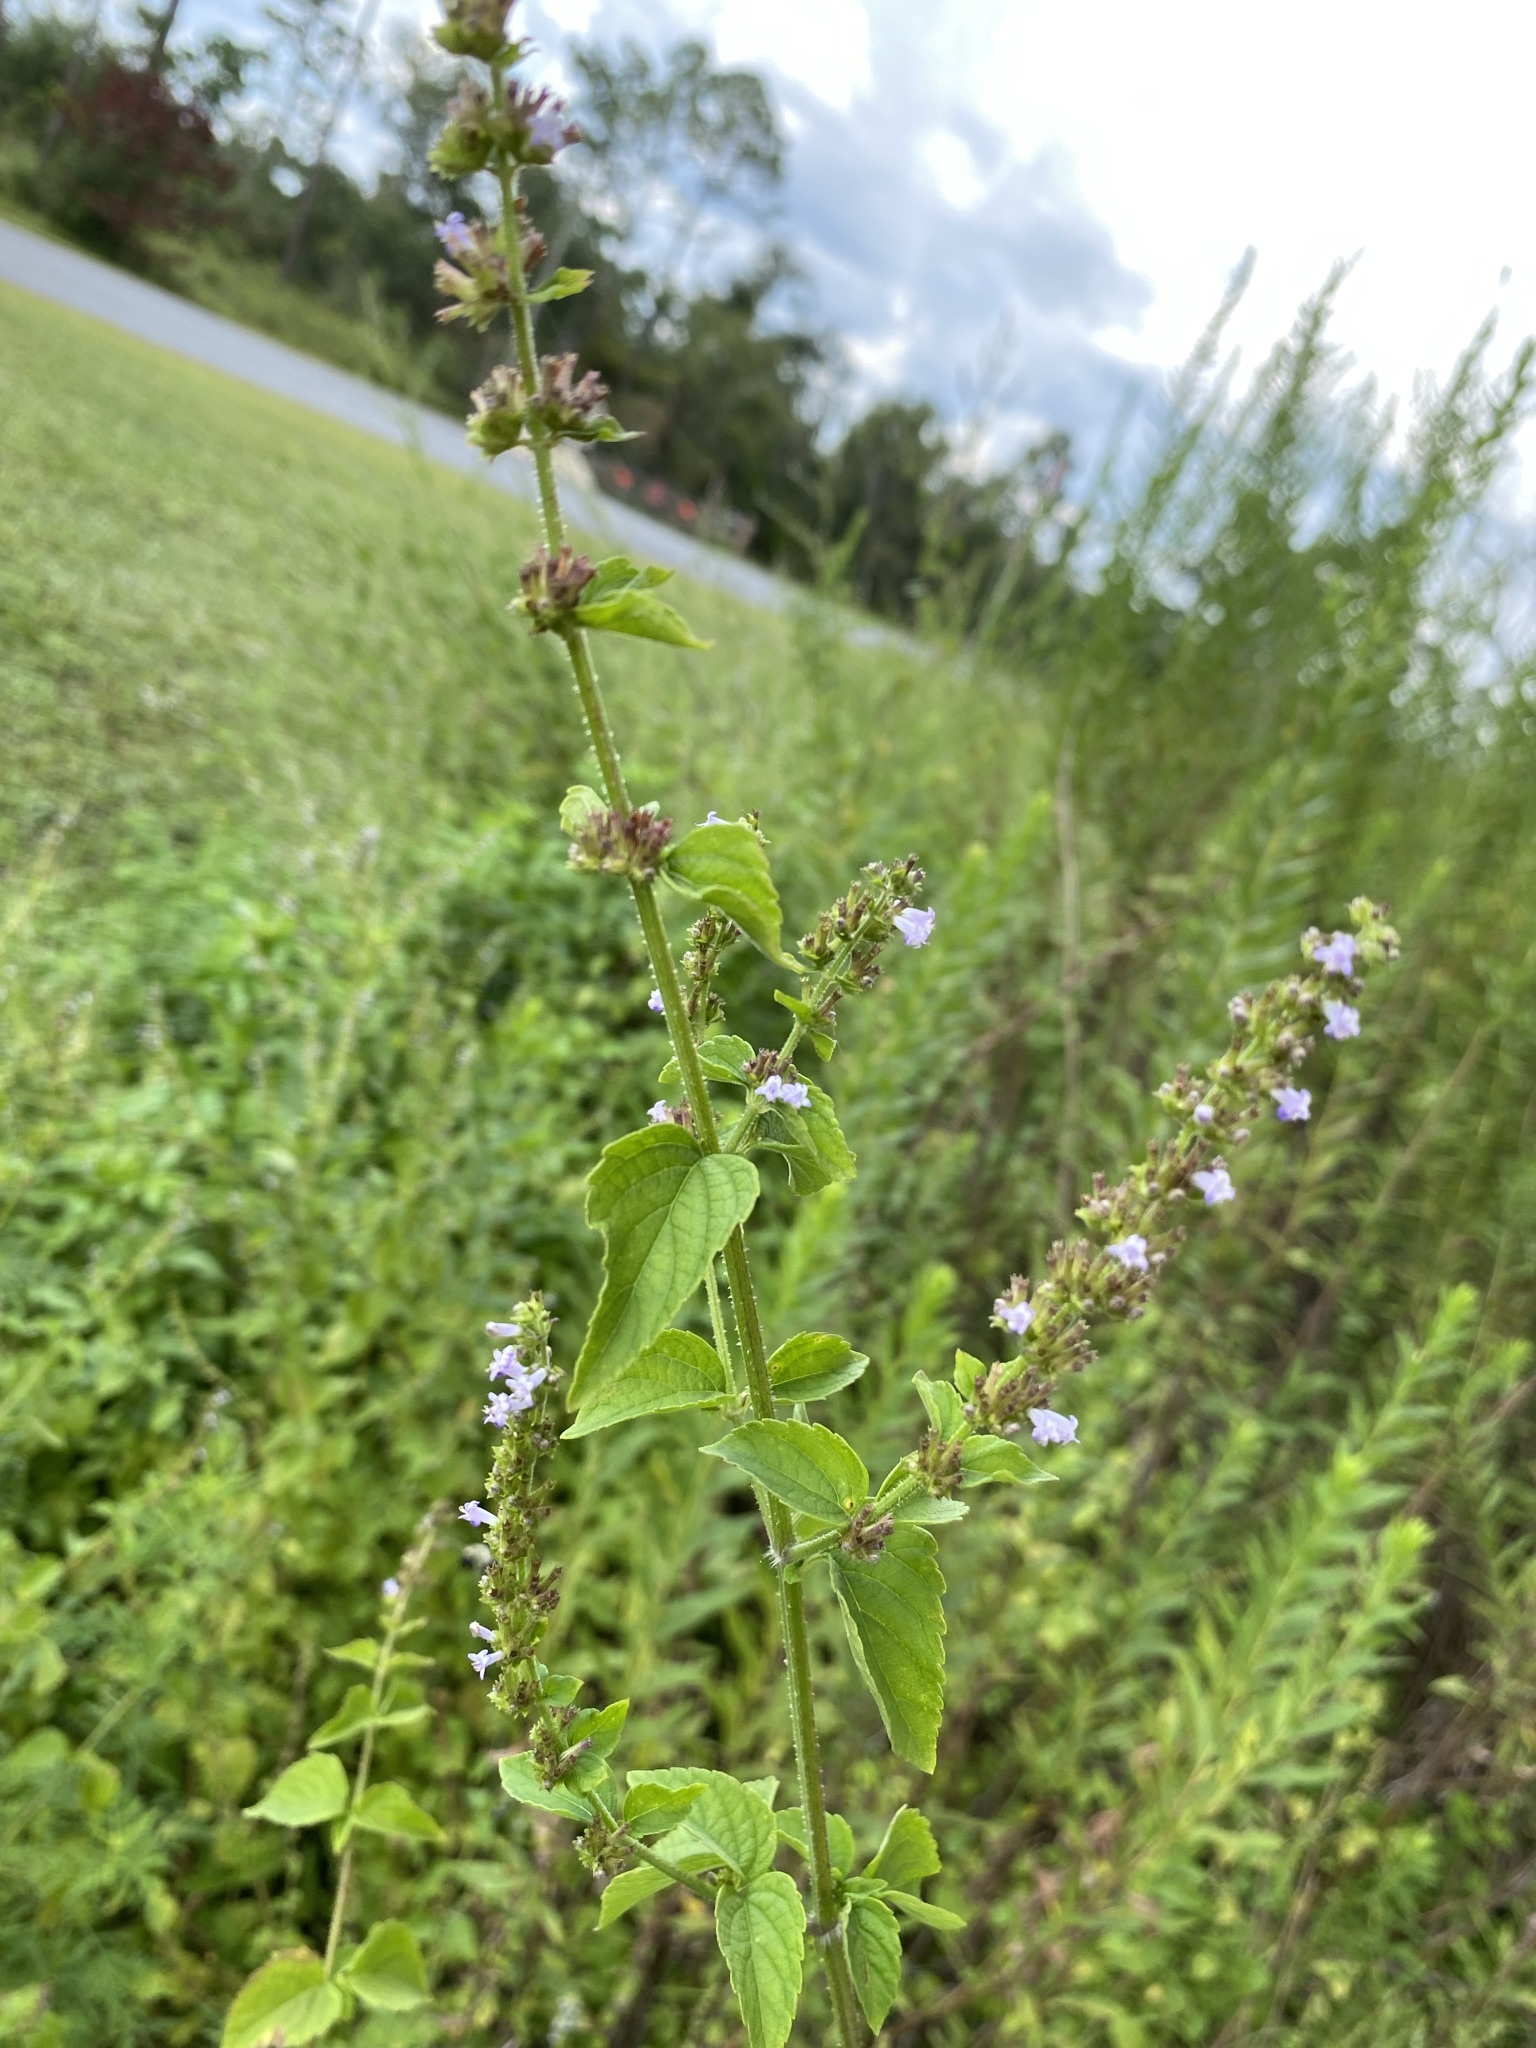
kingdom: Plantae
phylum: Tracheophyta
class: Magnoliopsida
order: Lamiales
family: Lamiaceae
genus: Cantinoa
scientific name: Cantinoa mutabilis
